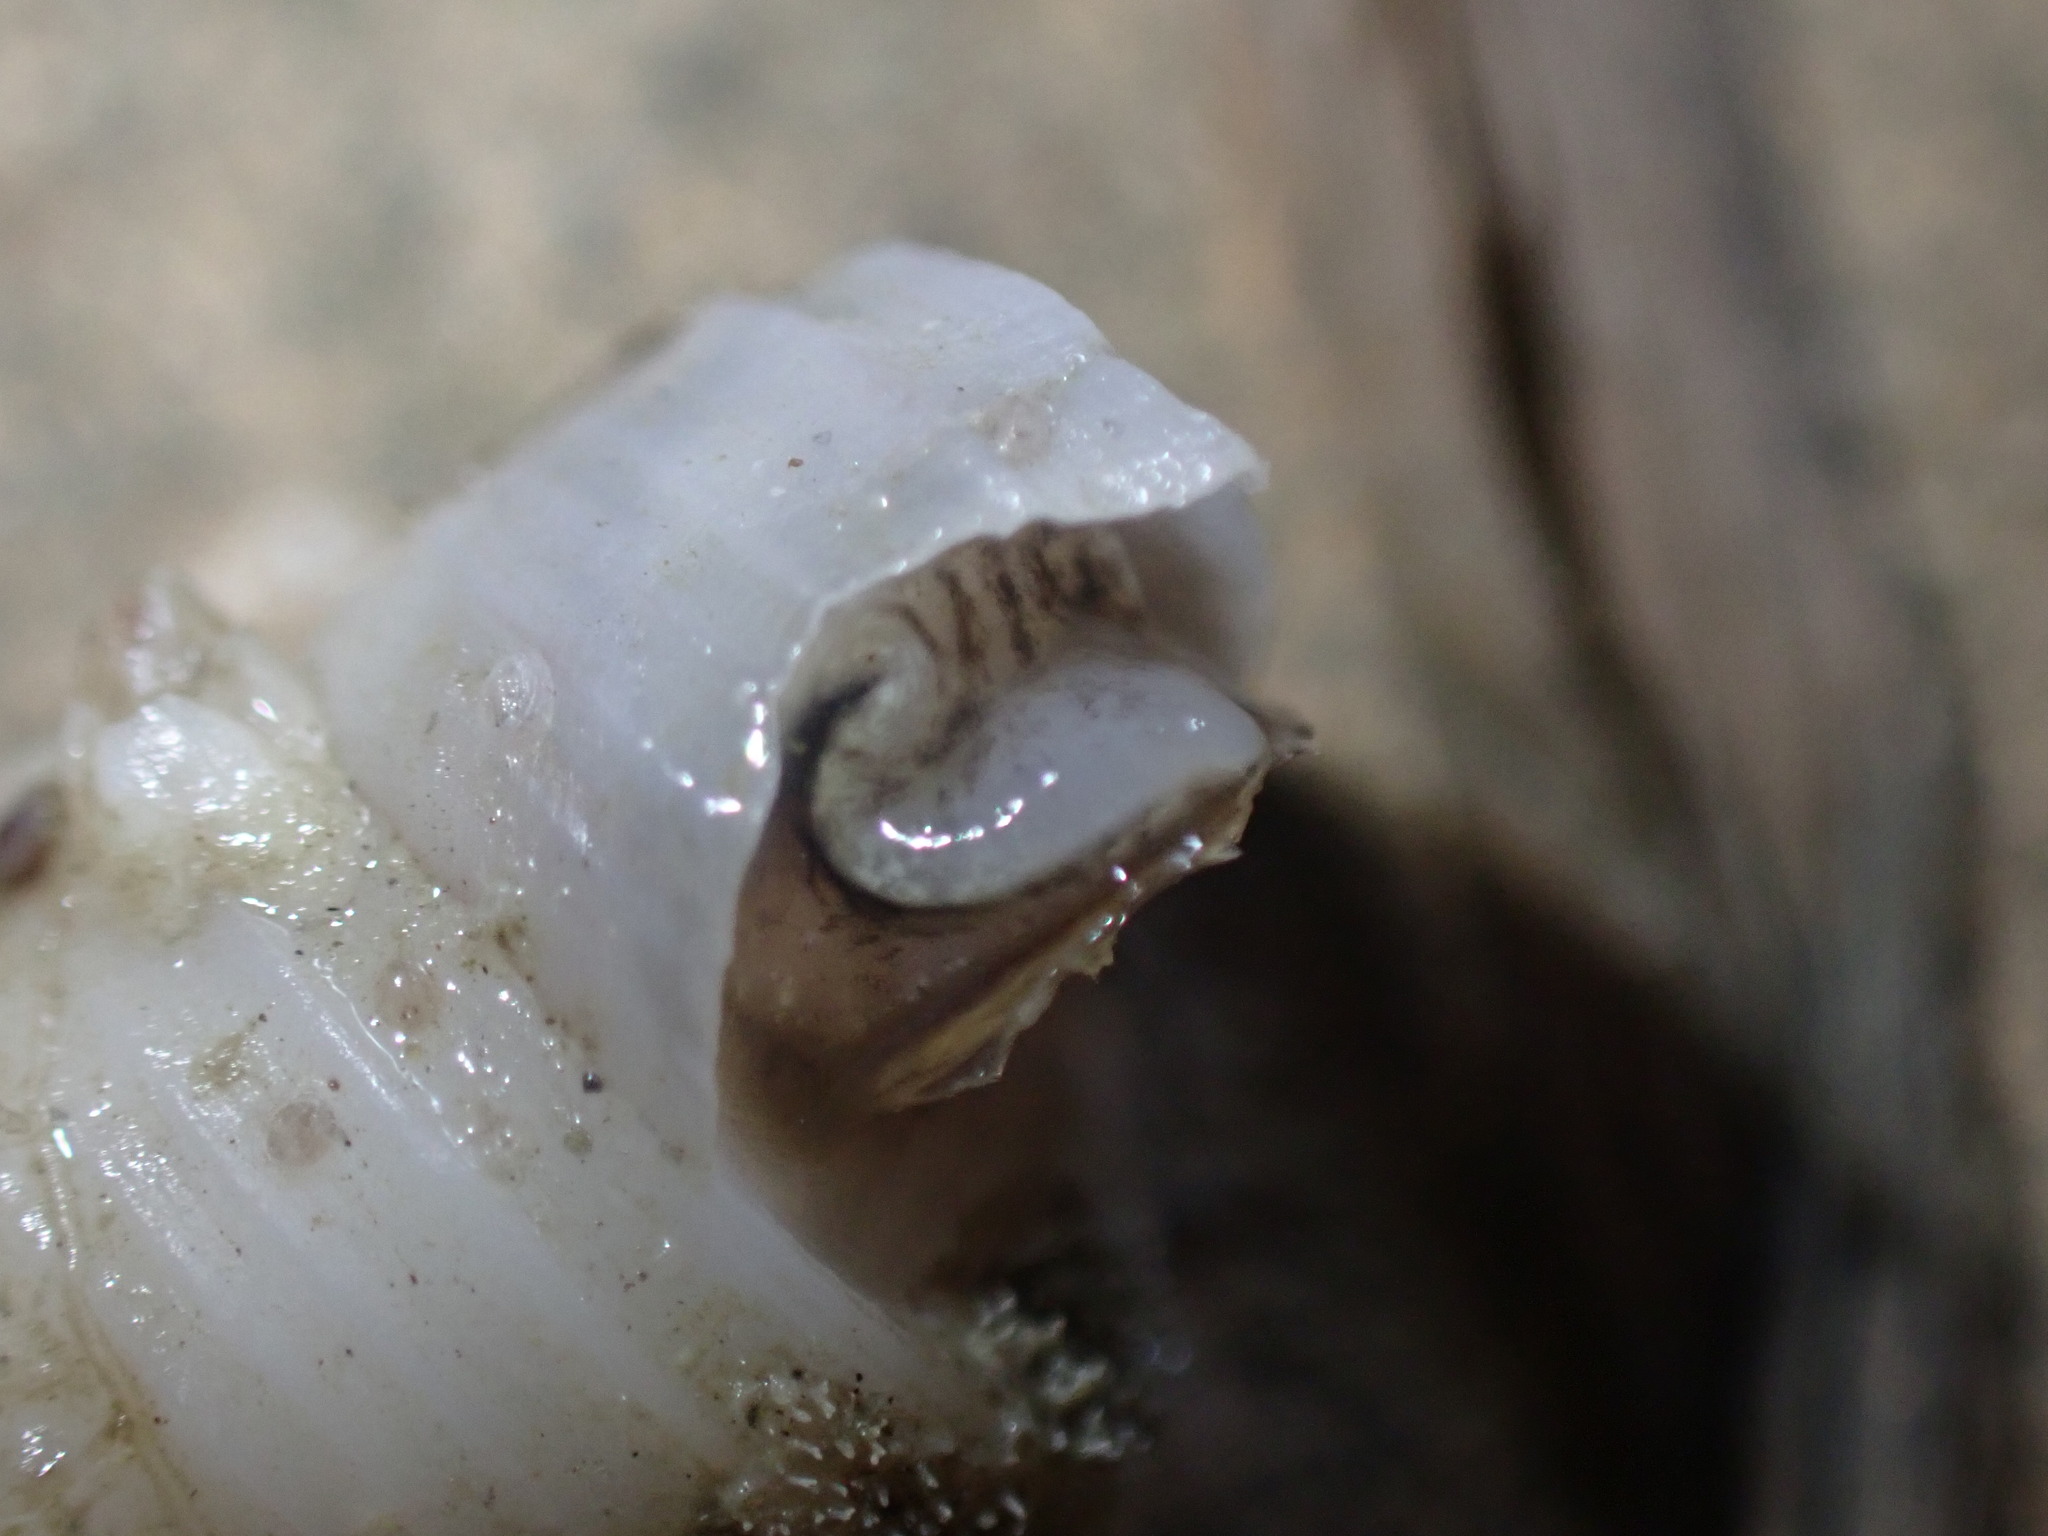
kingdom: Animalia
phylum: Mollusca
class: Gastropoda
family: Turritellidae
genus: Maoricolpus
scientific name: Maoricolpus roseus
